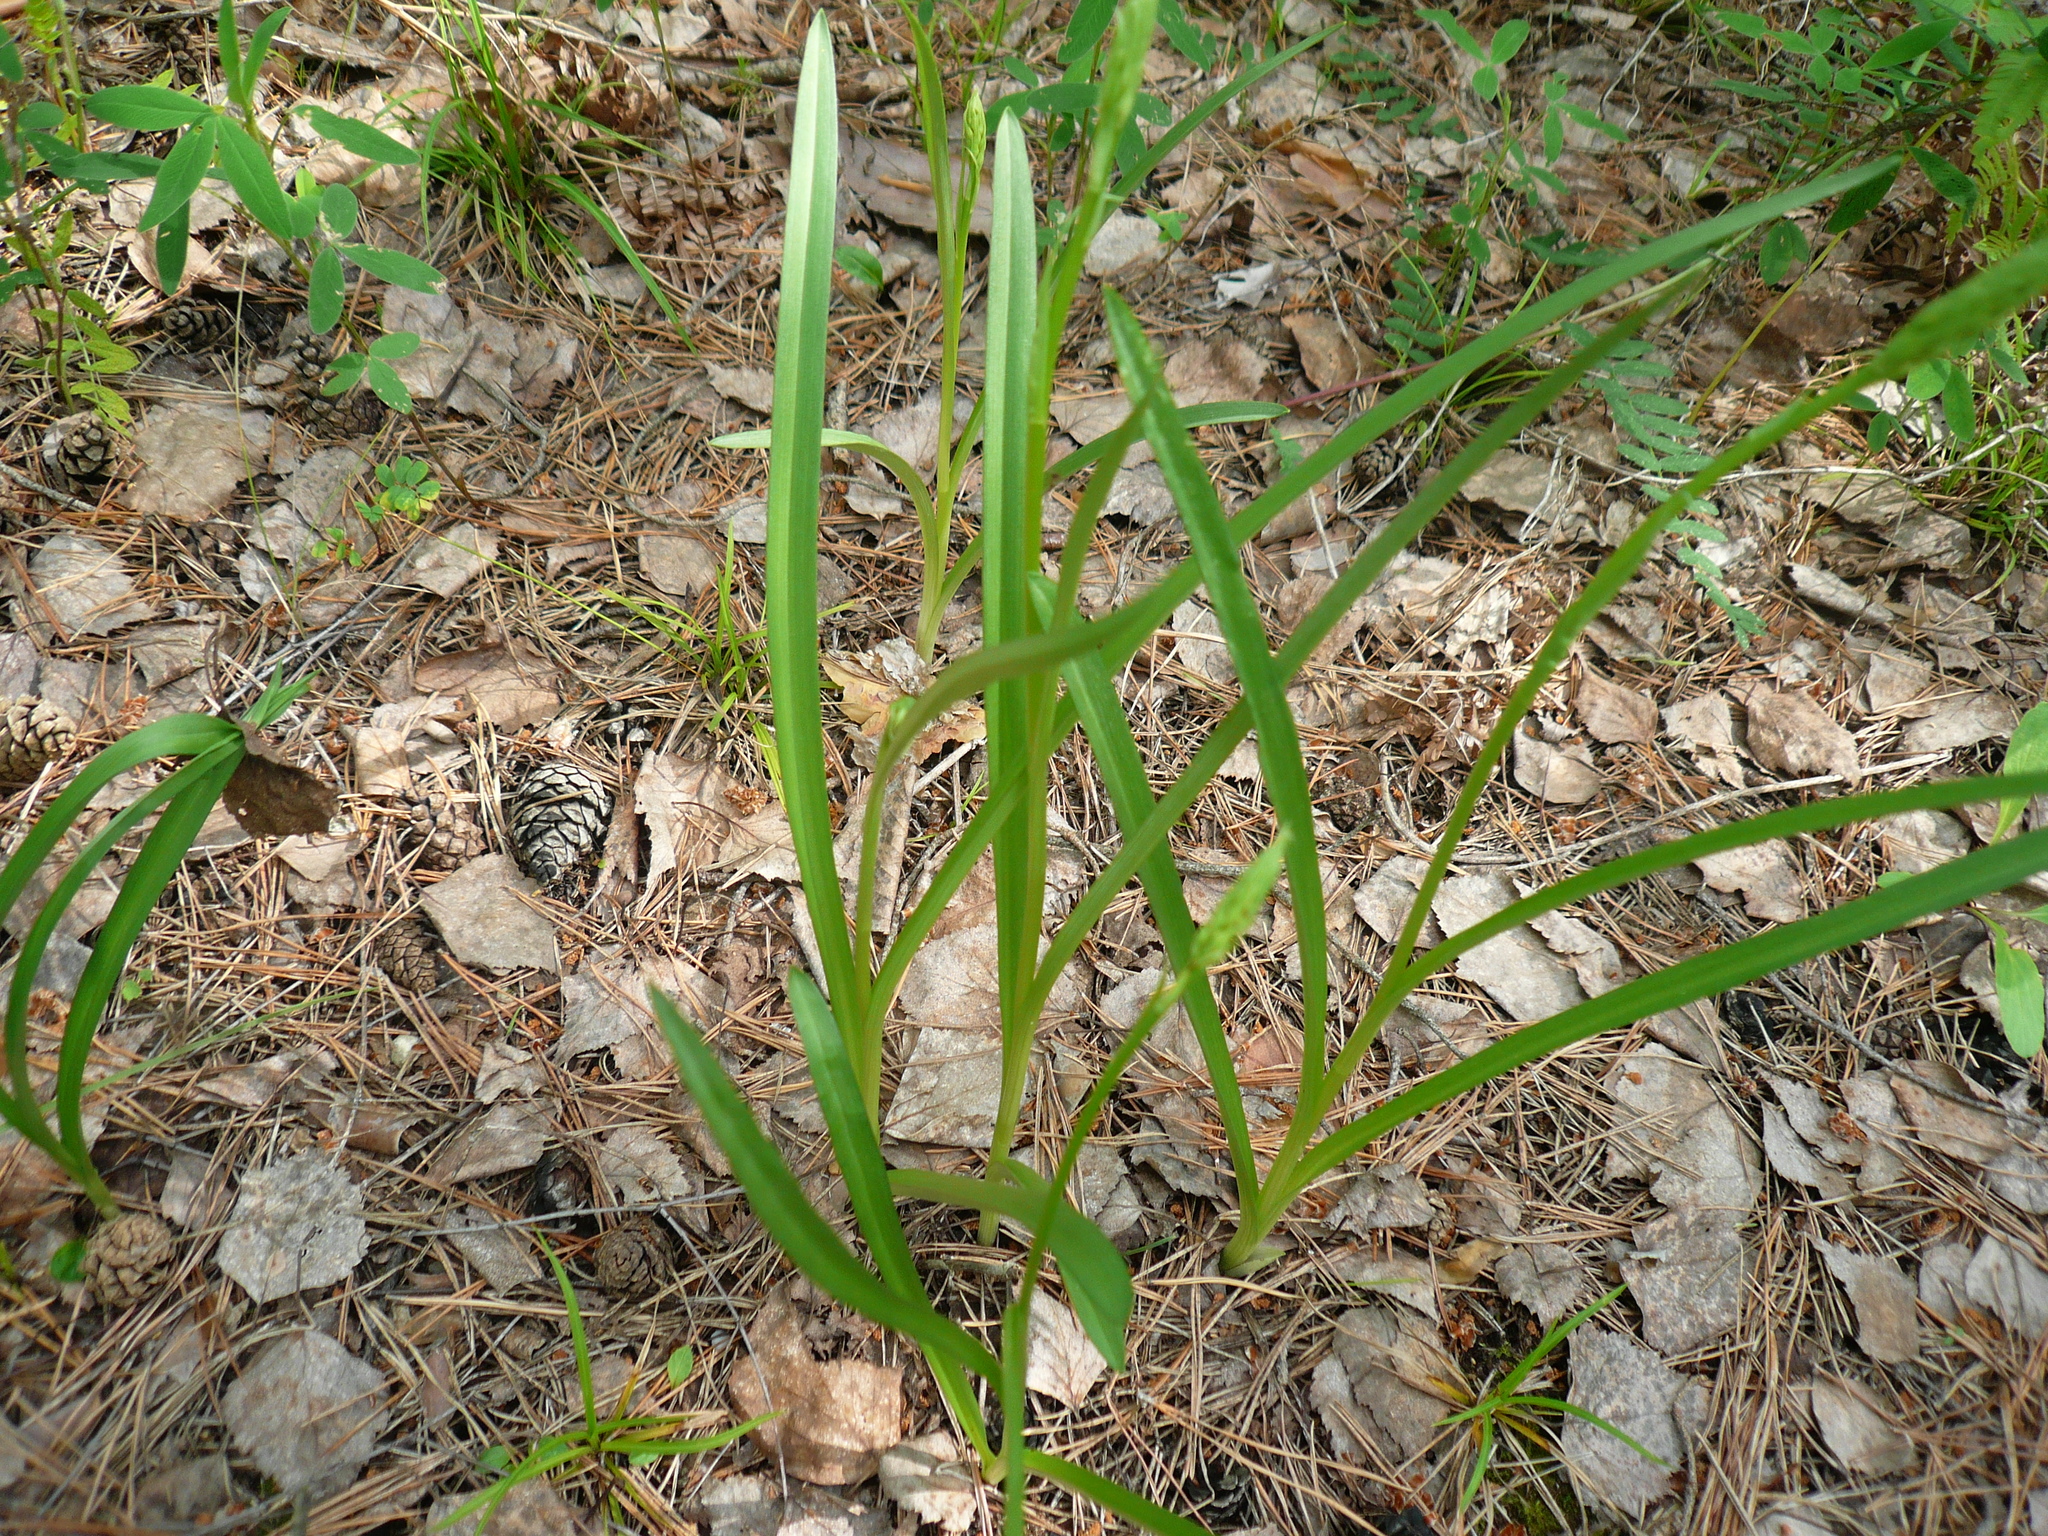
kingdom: Plantae
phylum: Tracheophyta
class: Liliopsida
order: Asparagales
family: Orchidaceae
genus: Gymnadenia
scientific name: Gymnadenia conopsea
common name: Fragrant orchid
